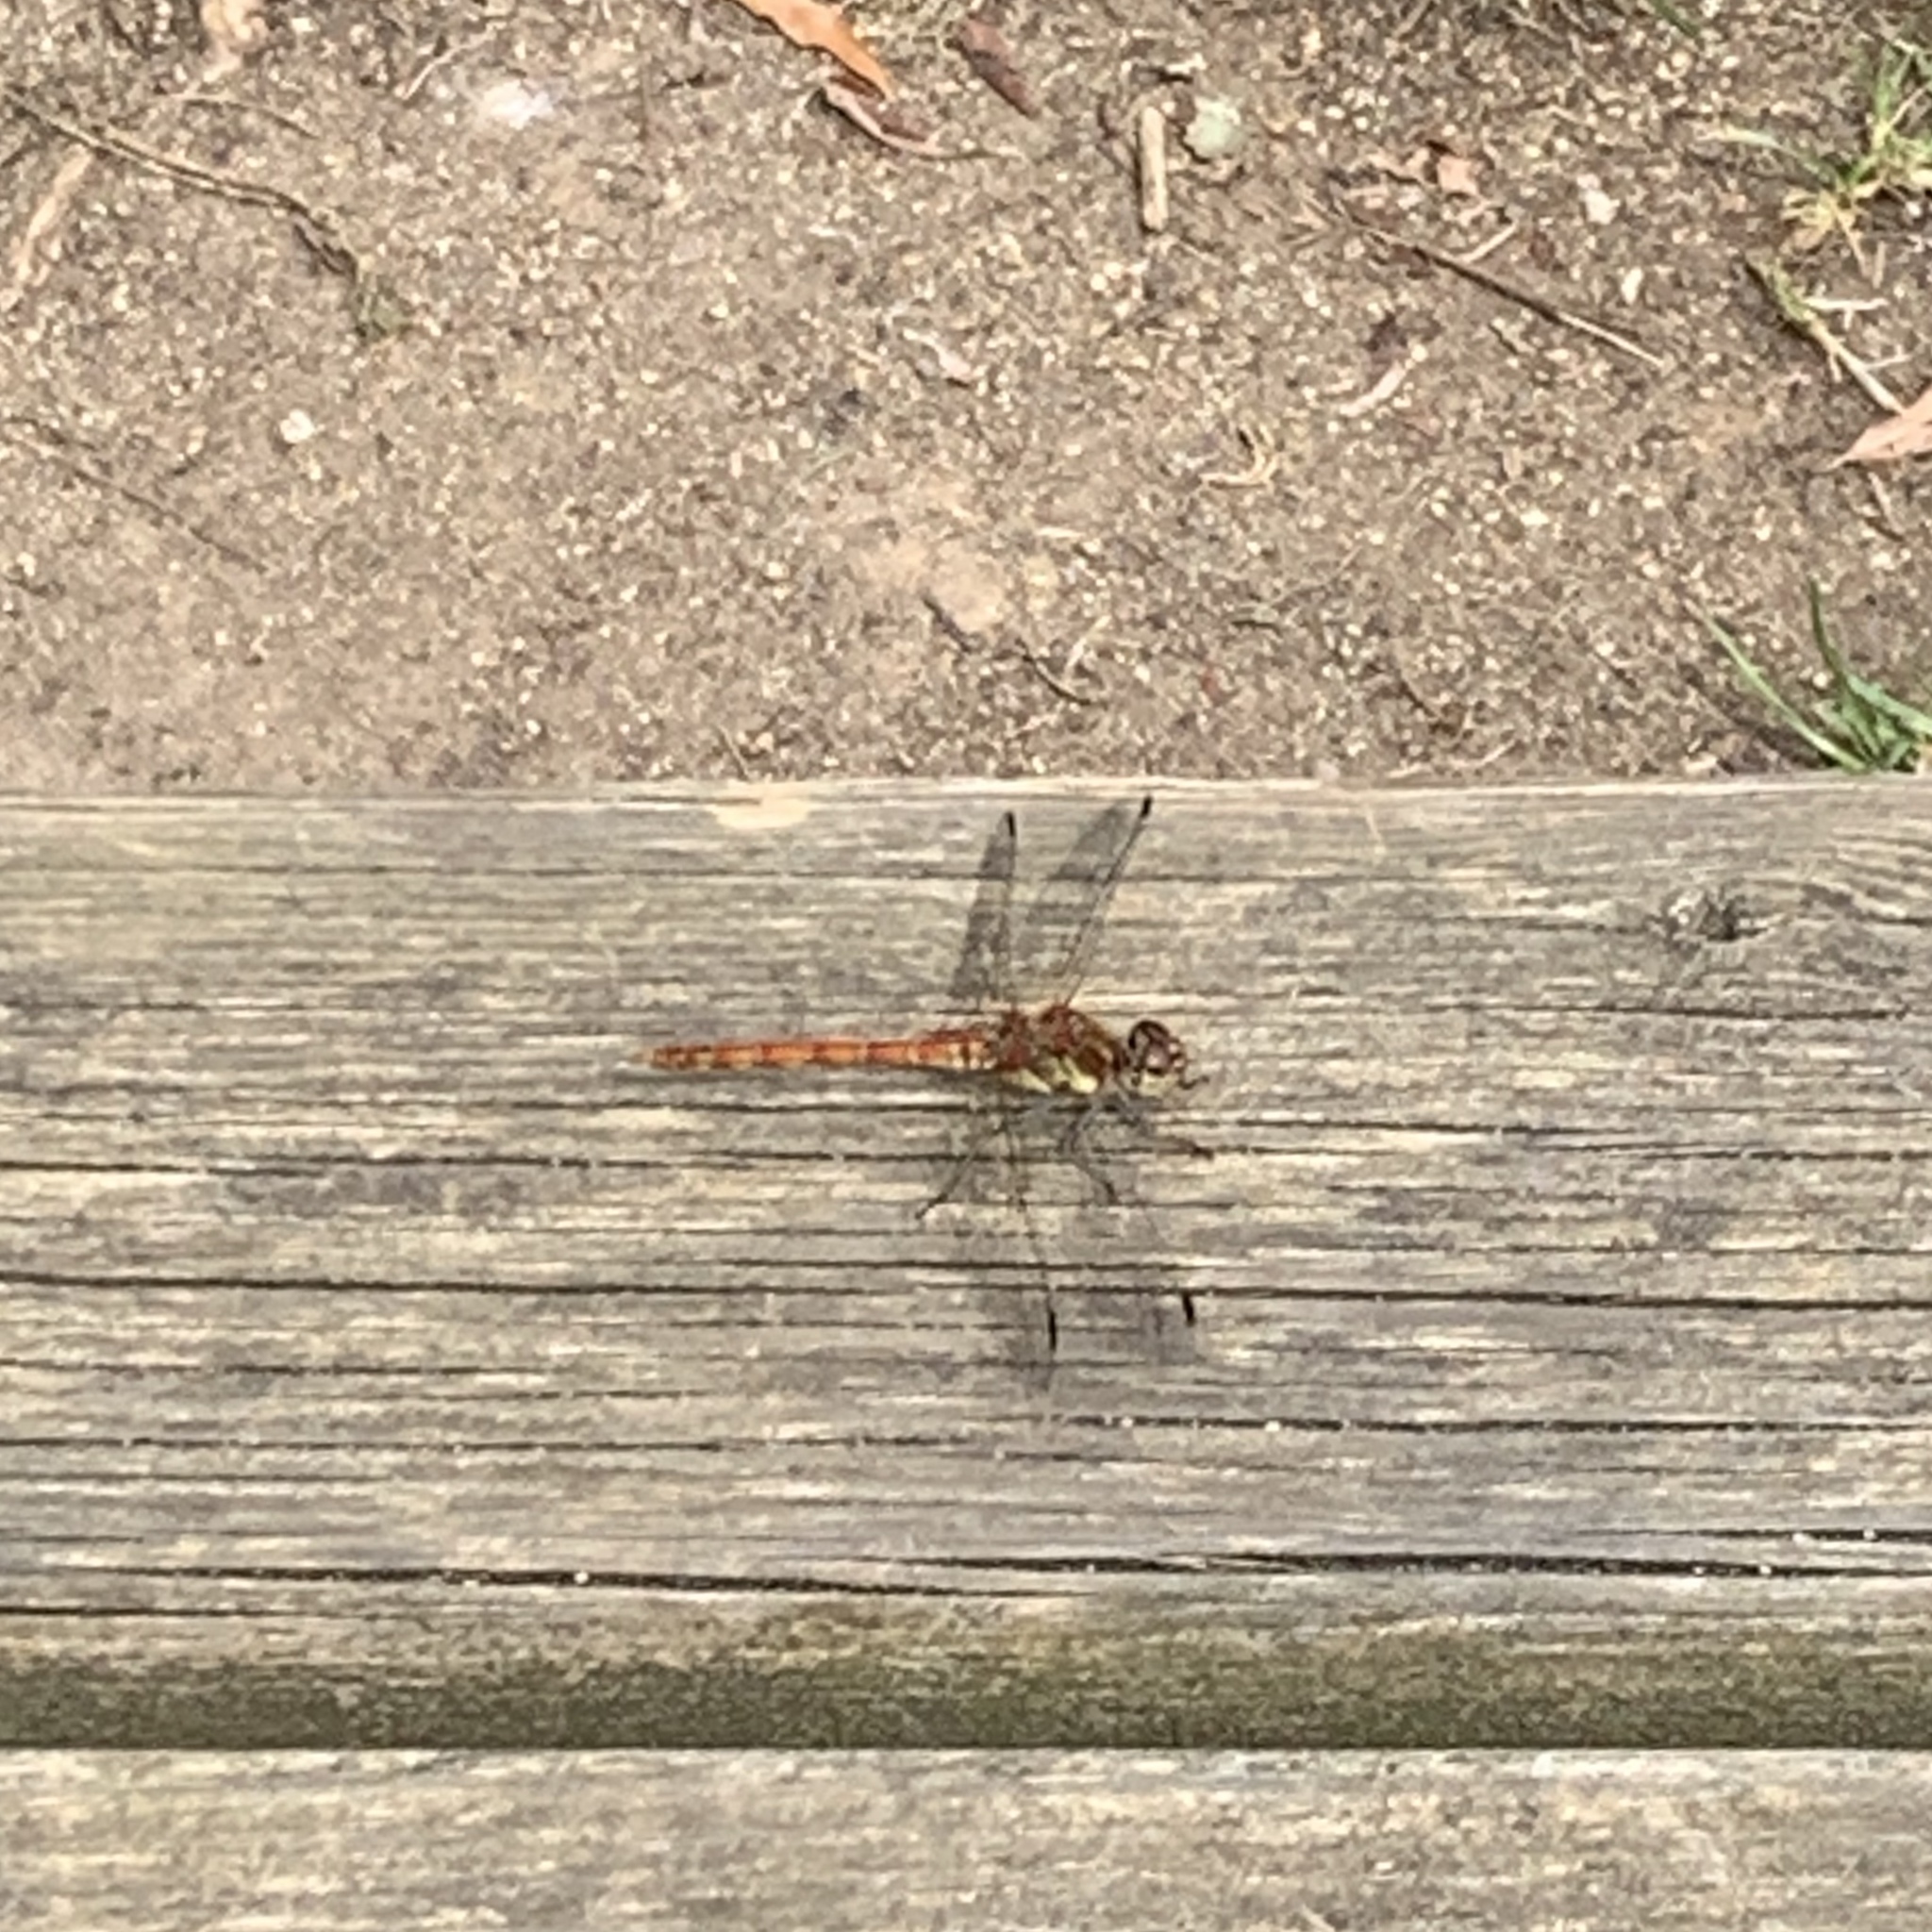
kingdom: Animalia
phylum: Arthropoda
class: Insecta
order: Odonata
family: Libellulidae
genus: Sympetrum
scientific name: Sympetrum striolatum
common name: Common darter
